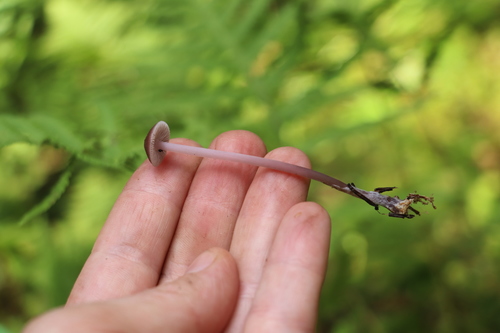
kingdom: Fungi
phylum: Basidiomycota
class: Agaricomycetes
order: Agaricales
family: Mycenaceae
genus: Mycena
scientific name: Mycena pura
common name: Lilac bonnet
